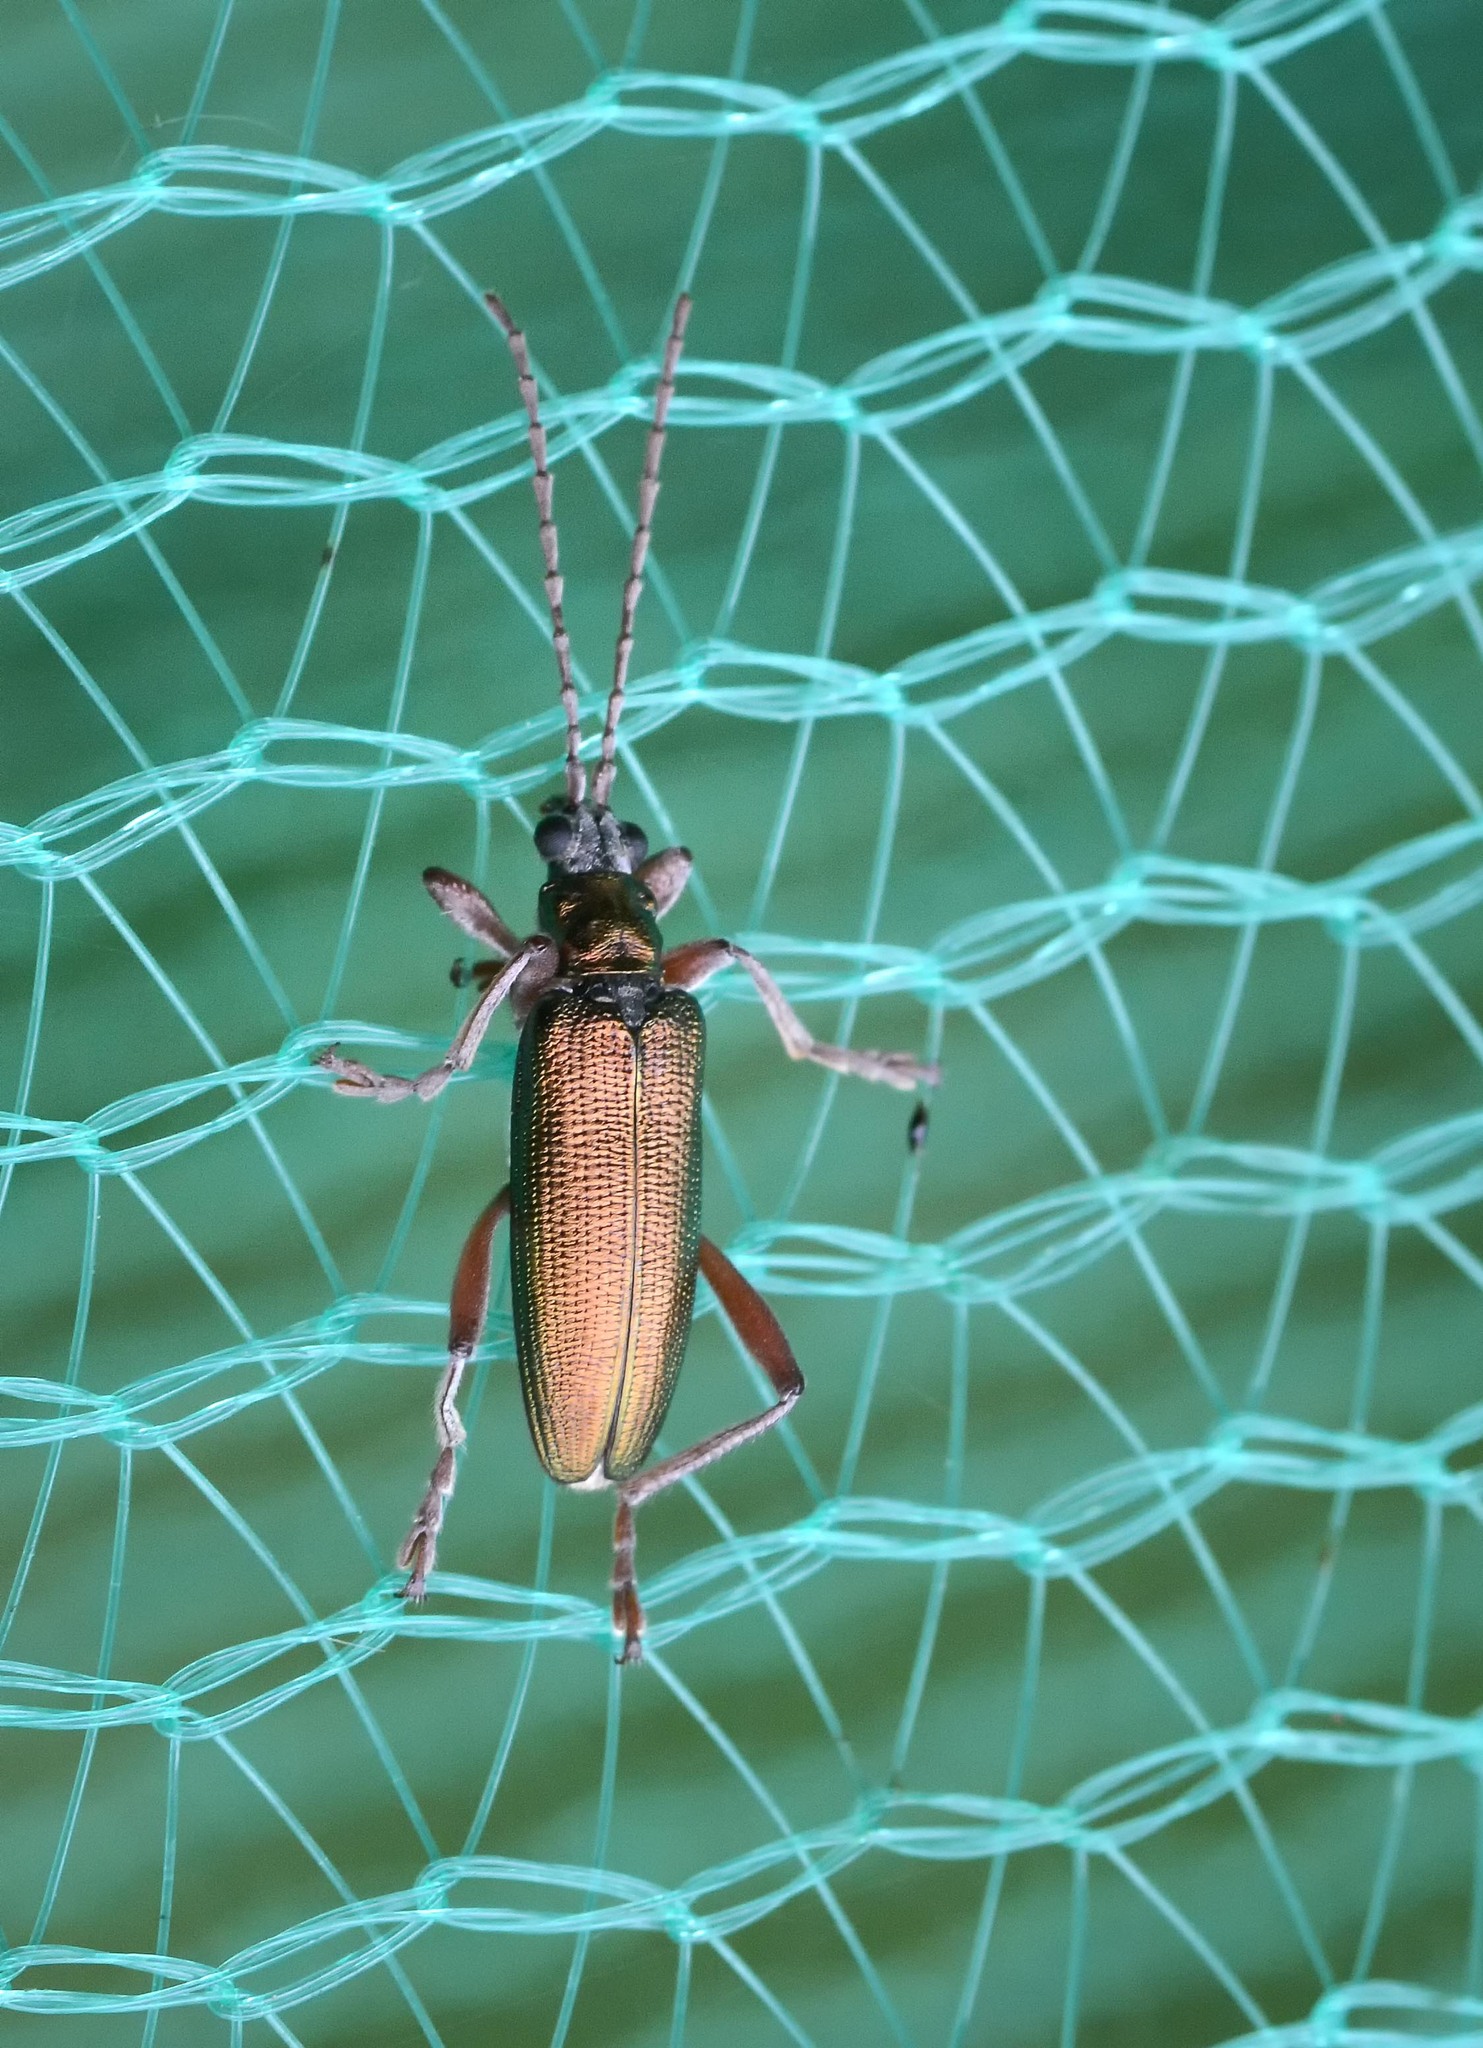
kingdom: Animalia
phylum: Arthropoda
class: Insecta
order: Coleoptera
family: Chrysomelidae
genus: Donacia
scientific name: Donacia clavipes
